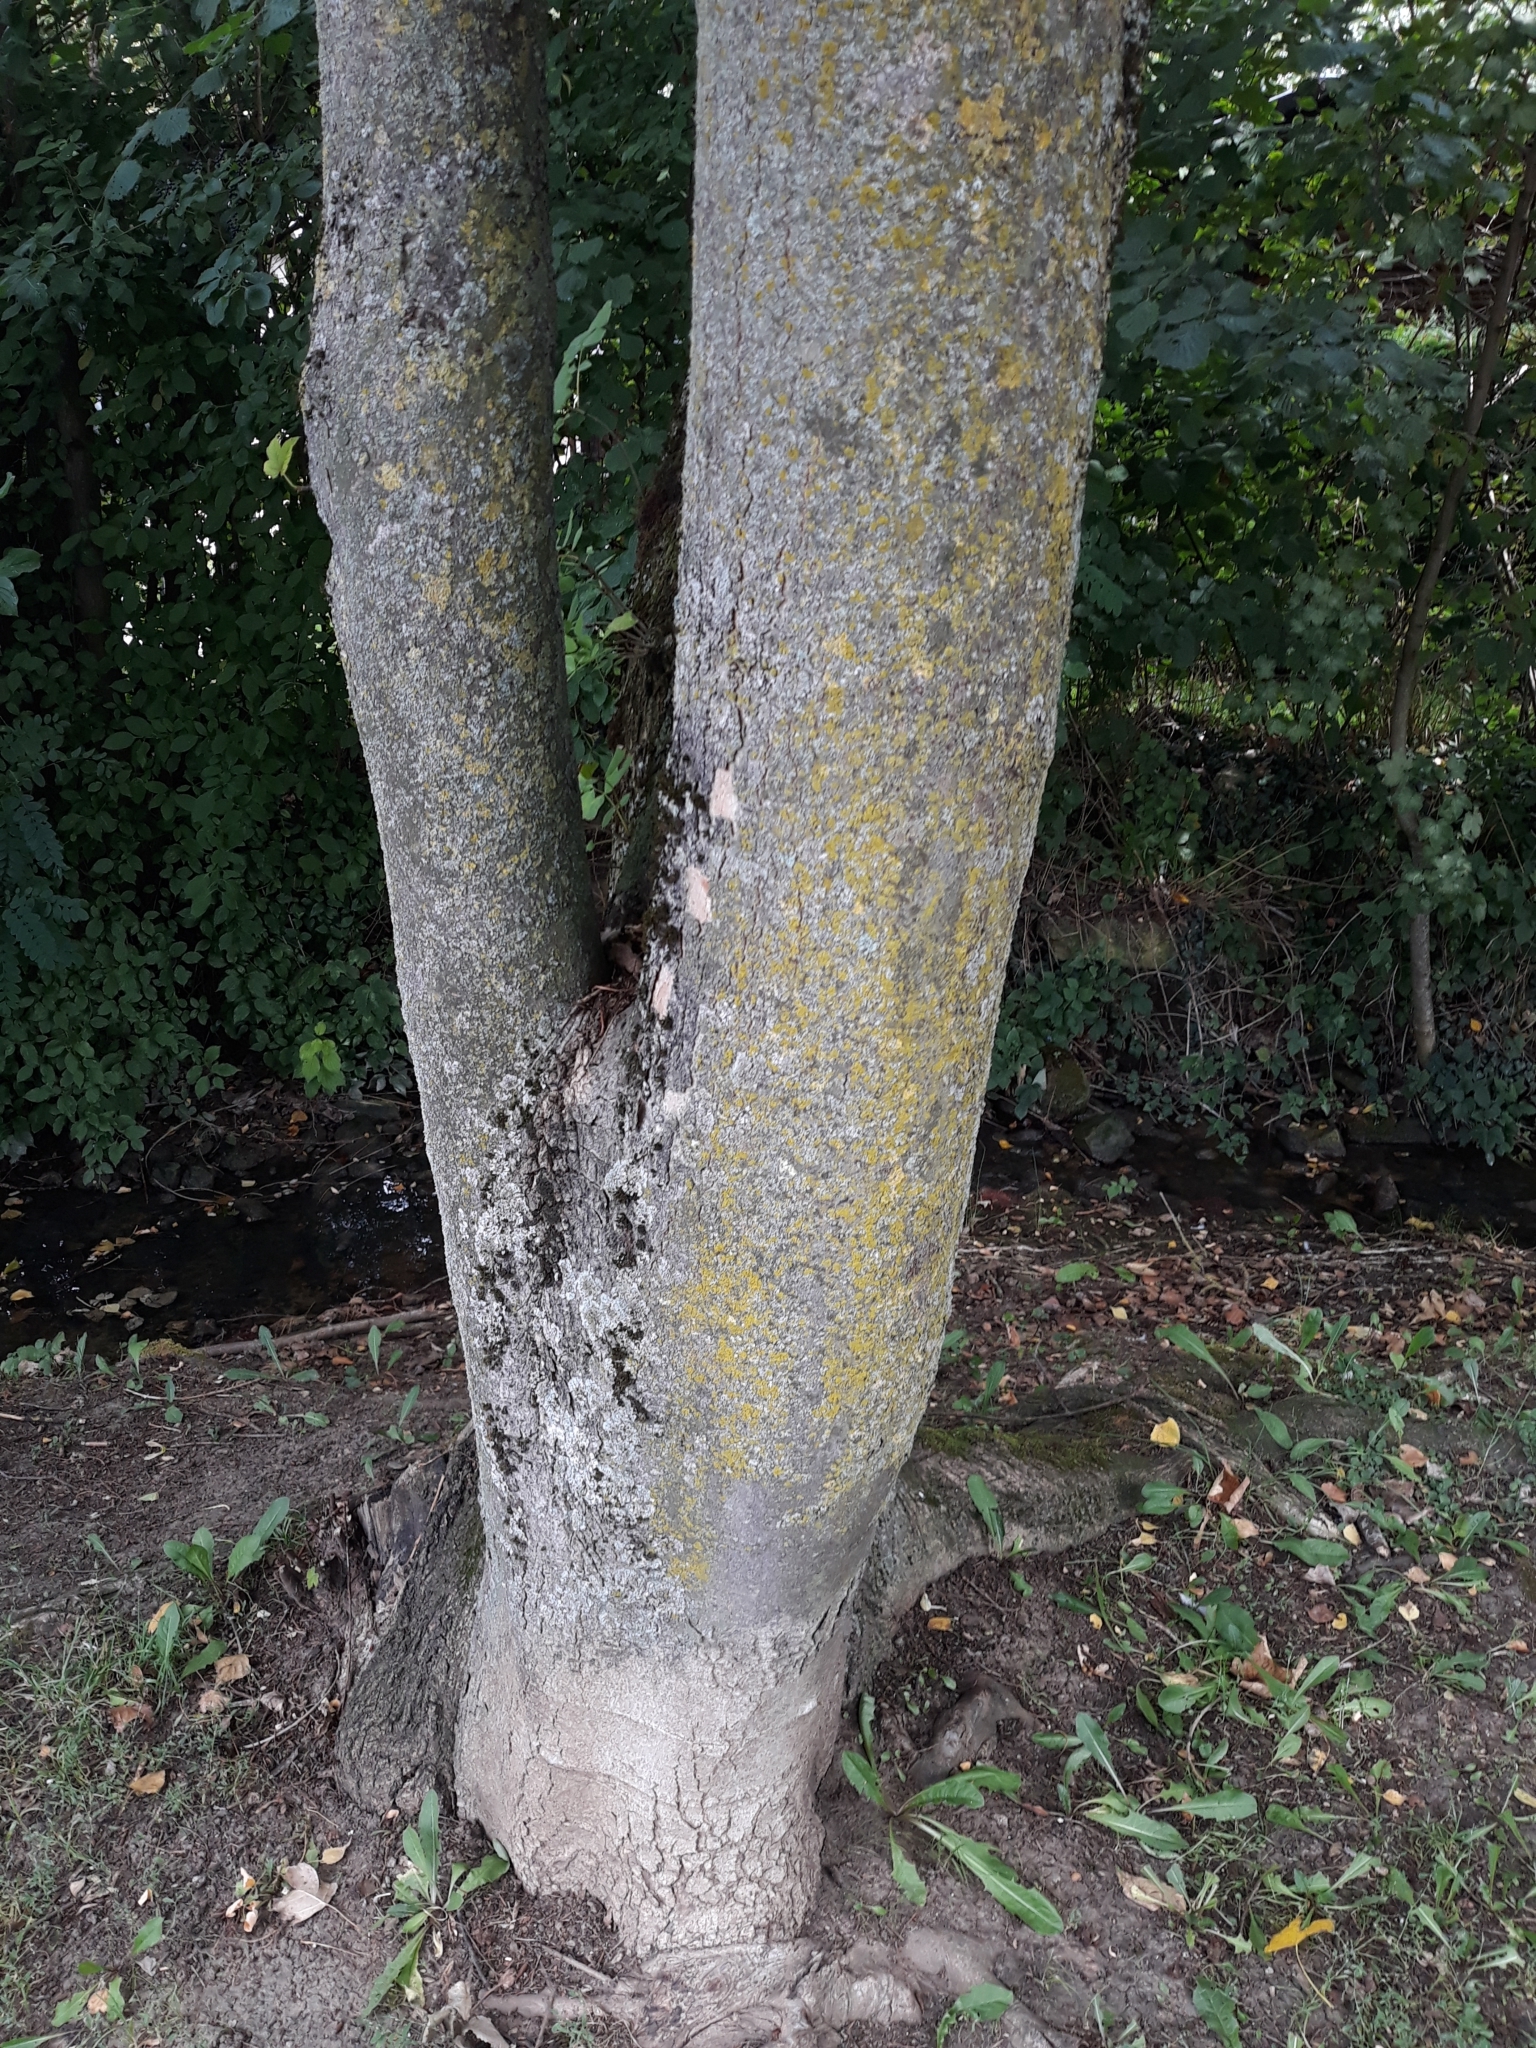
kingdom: Plantae
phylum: Tracheophyta
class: Magnoliopsida
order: Sapindales
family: Sapindaceae
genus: Acer
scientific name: Acer pseudoplatanus
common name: Sycamore
